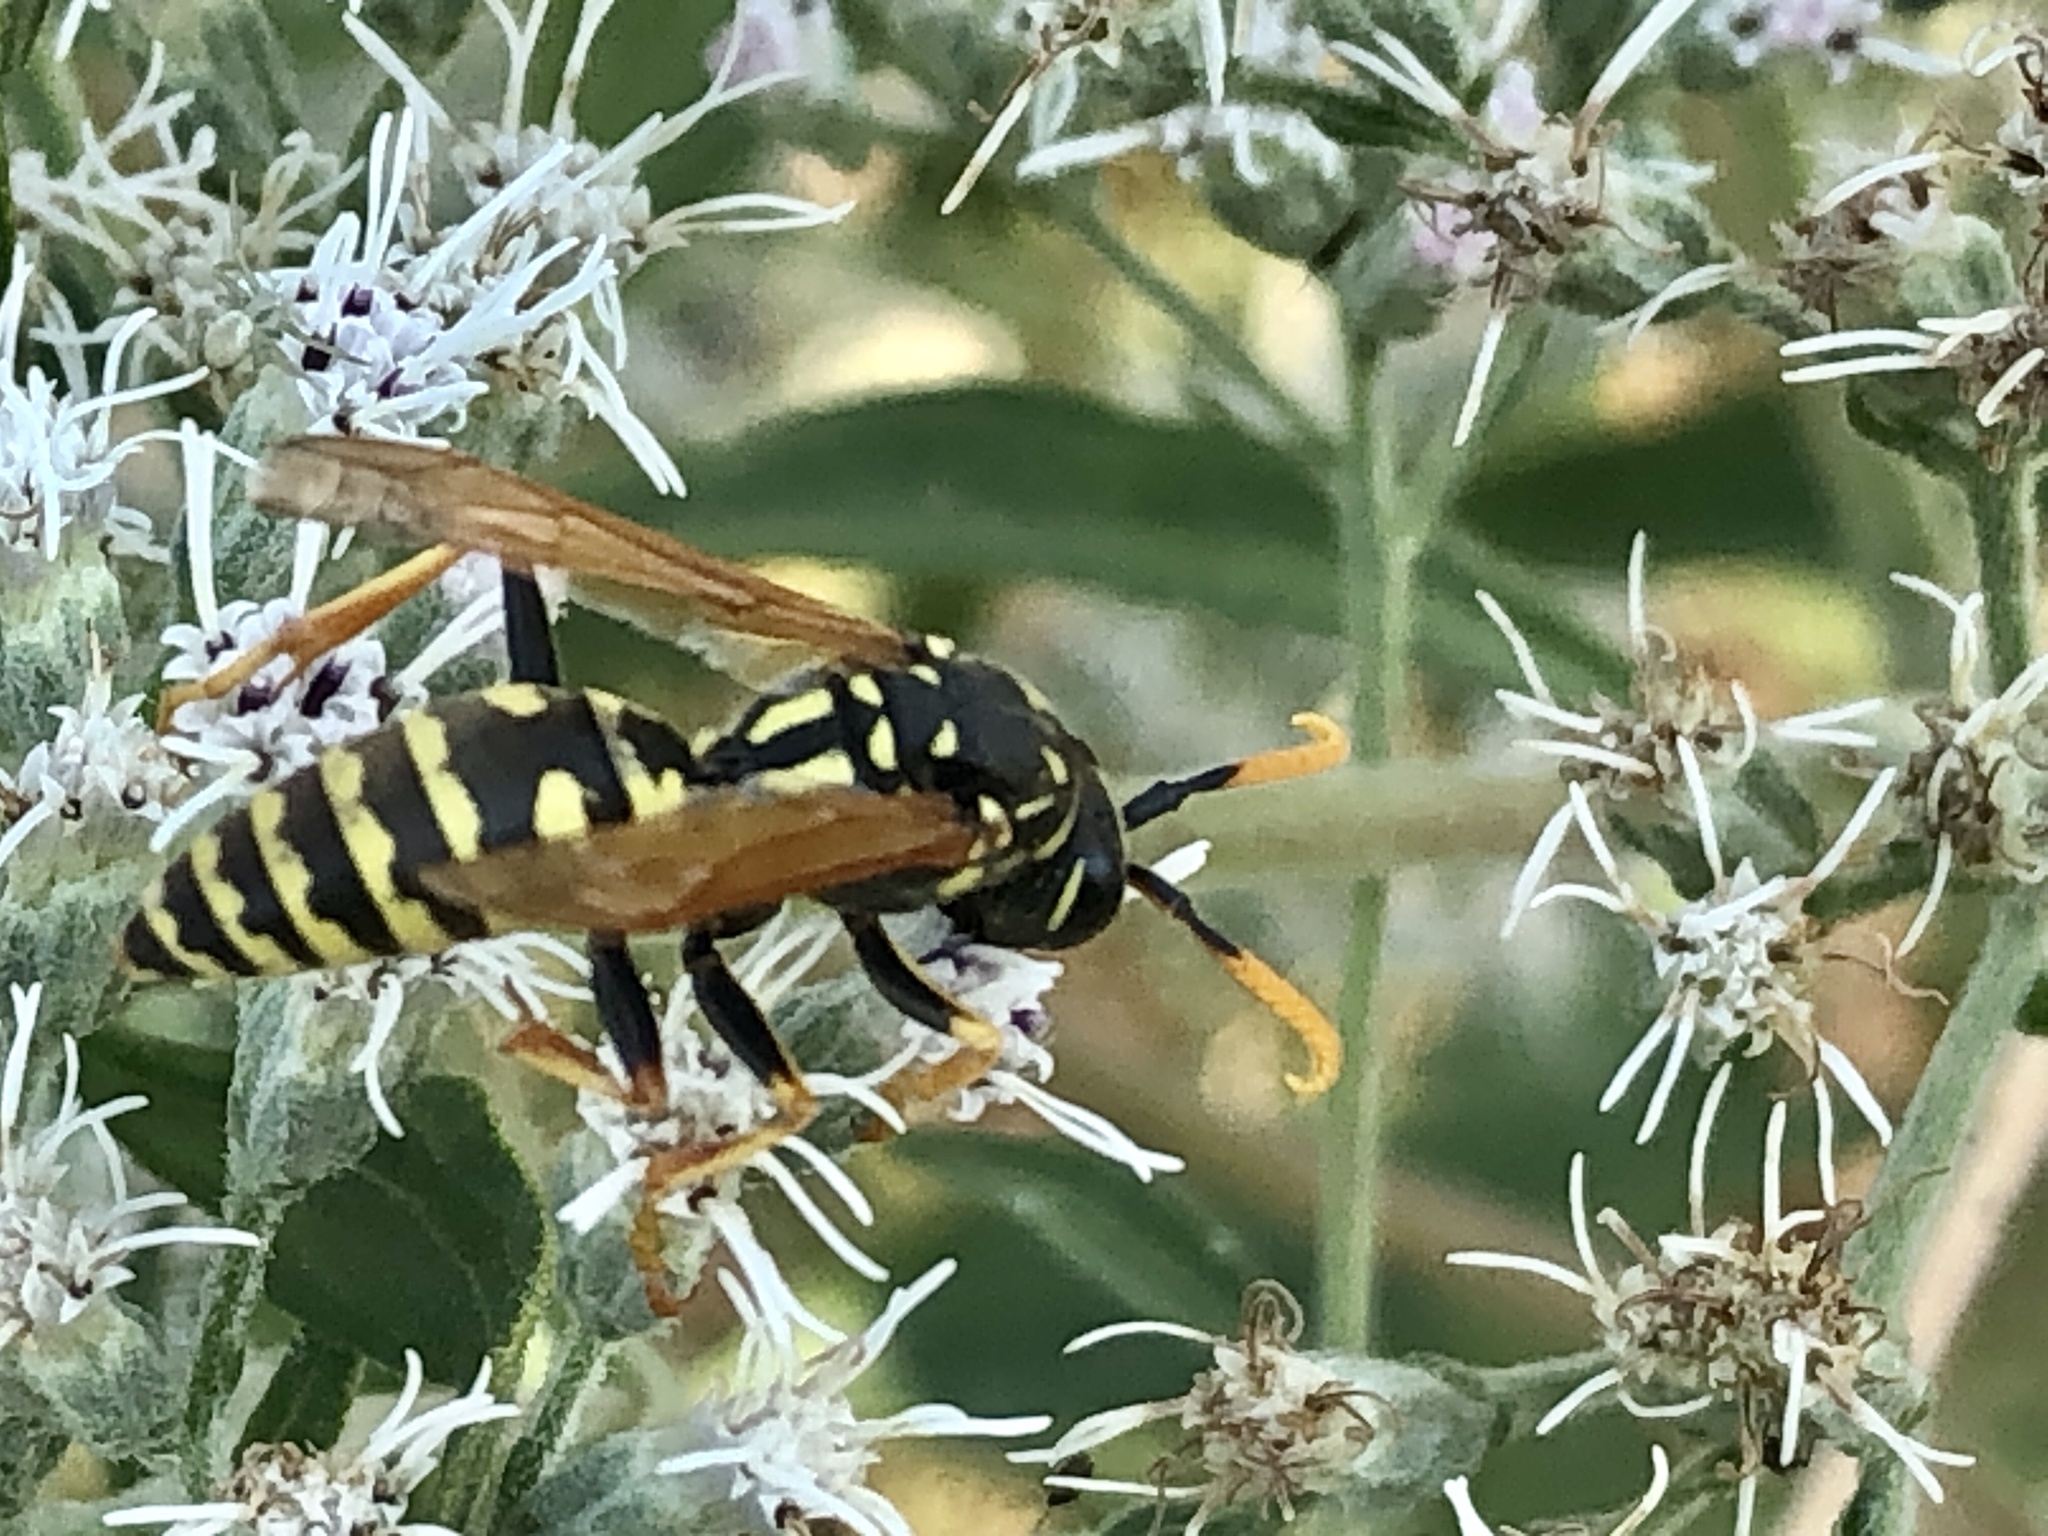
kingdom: Animalia
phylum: Arthropoda
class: Insecta
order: Hymenoptera
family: Eumenidae
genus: Polistes
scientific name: Polistes dominula
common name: Paper wasp
